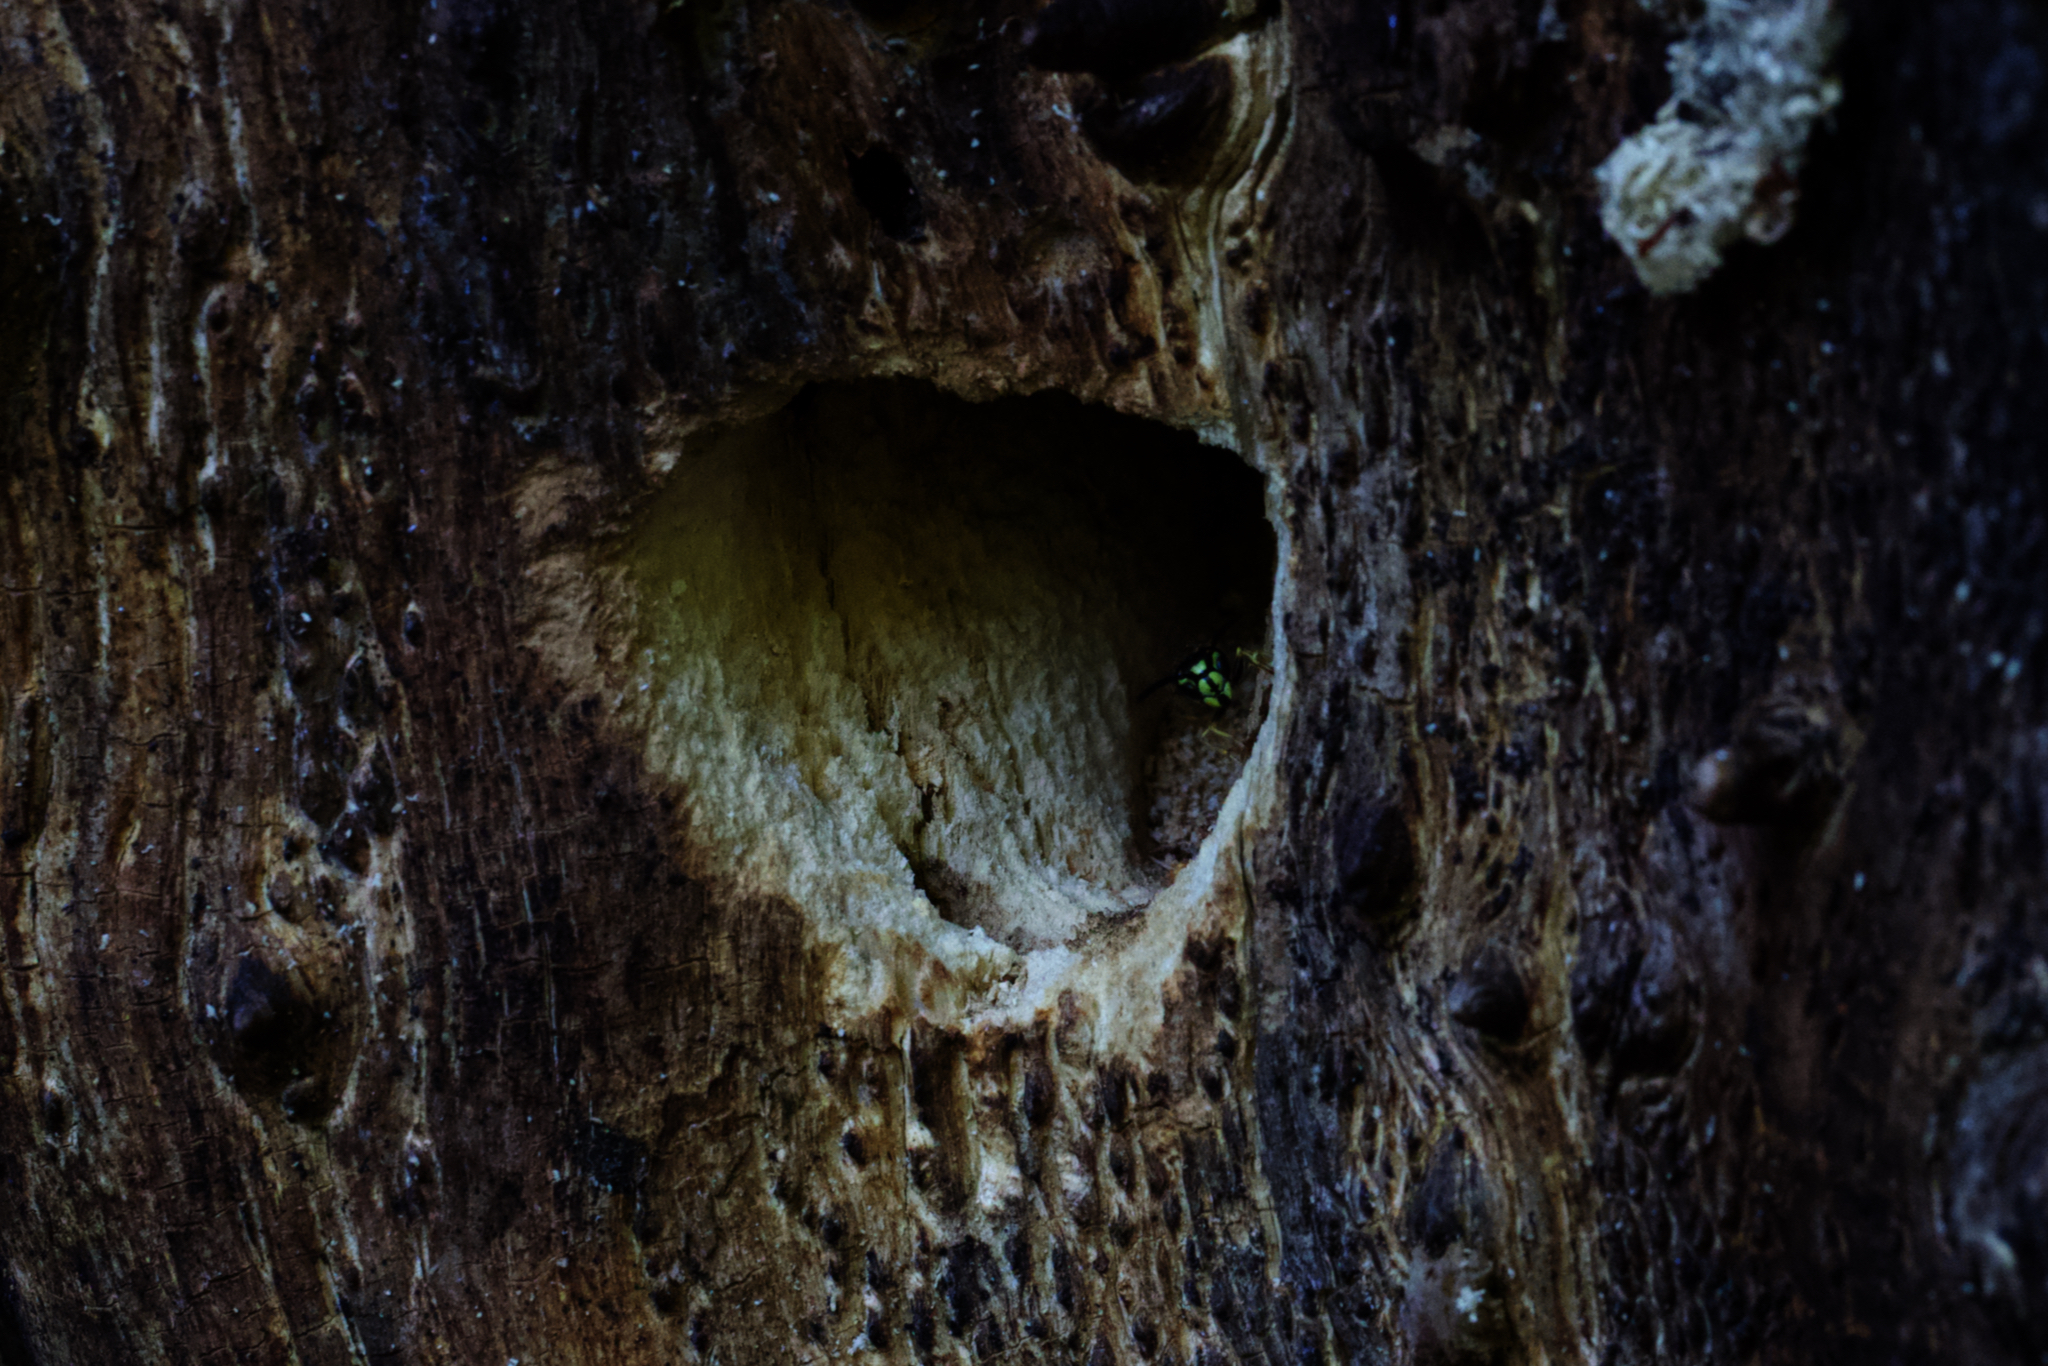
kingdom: Animalia
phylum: Arthropoda
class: Insecta
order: Hymenoptera
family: Vespidae
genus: Vespula
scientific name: Vespula alascensis
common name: Alaska yellowjacket
